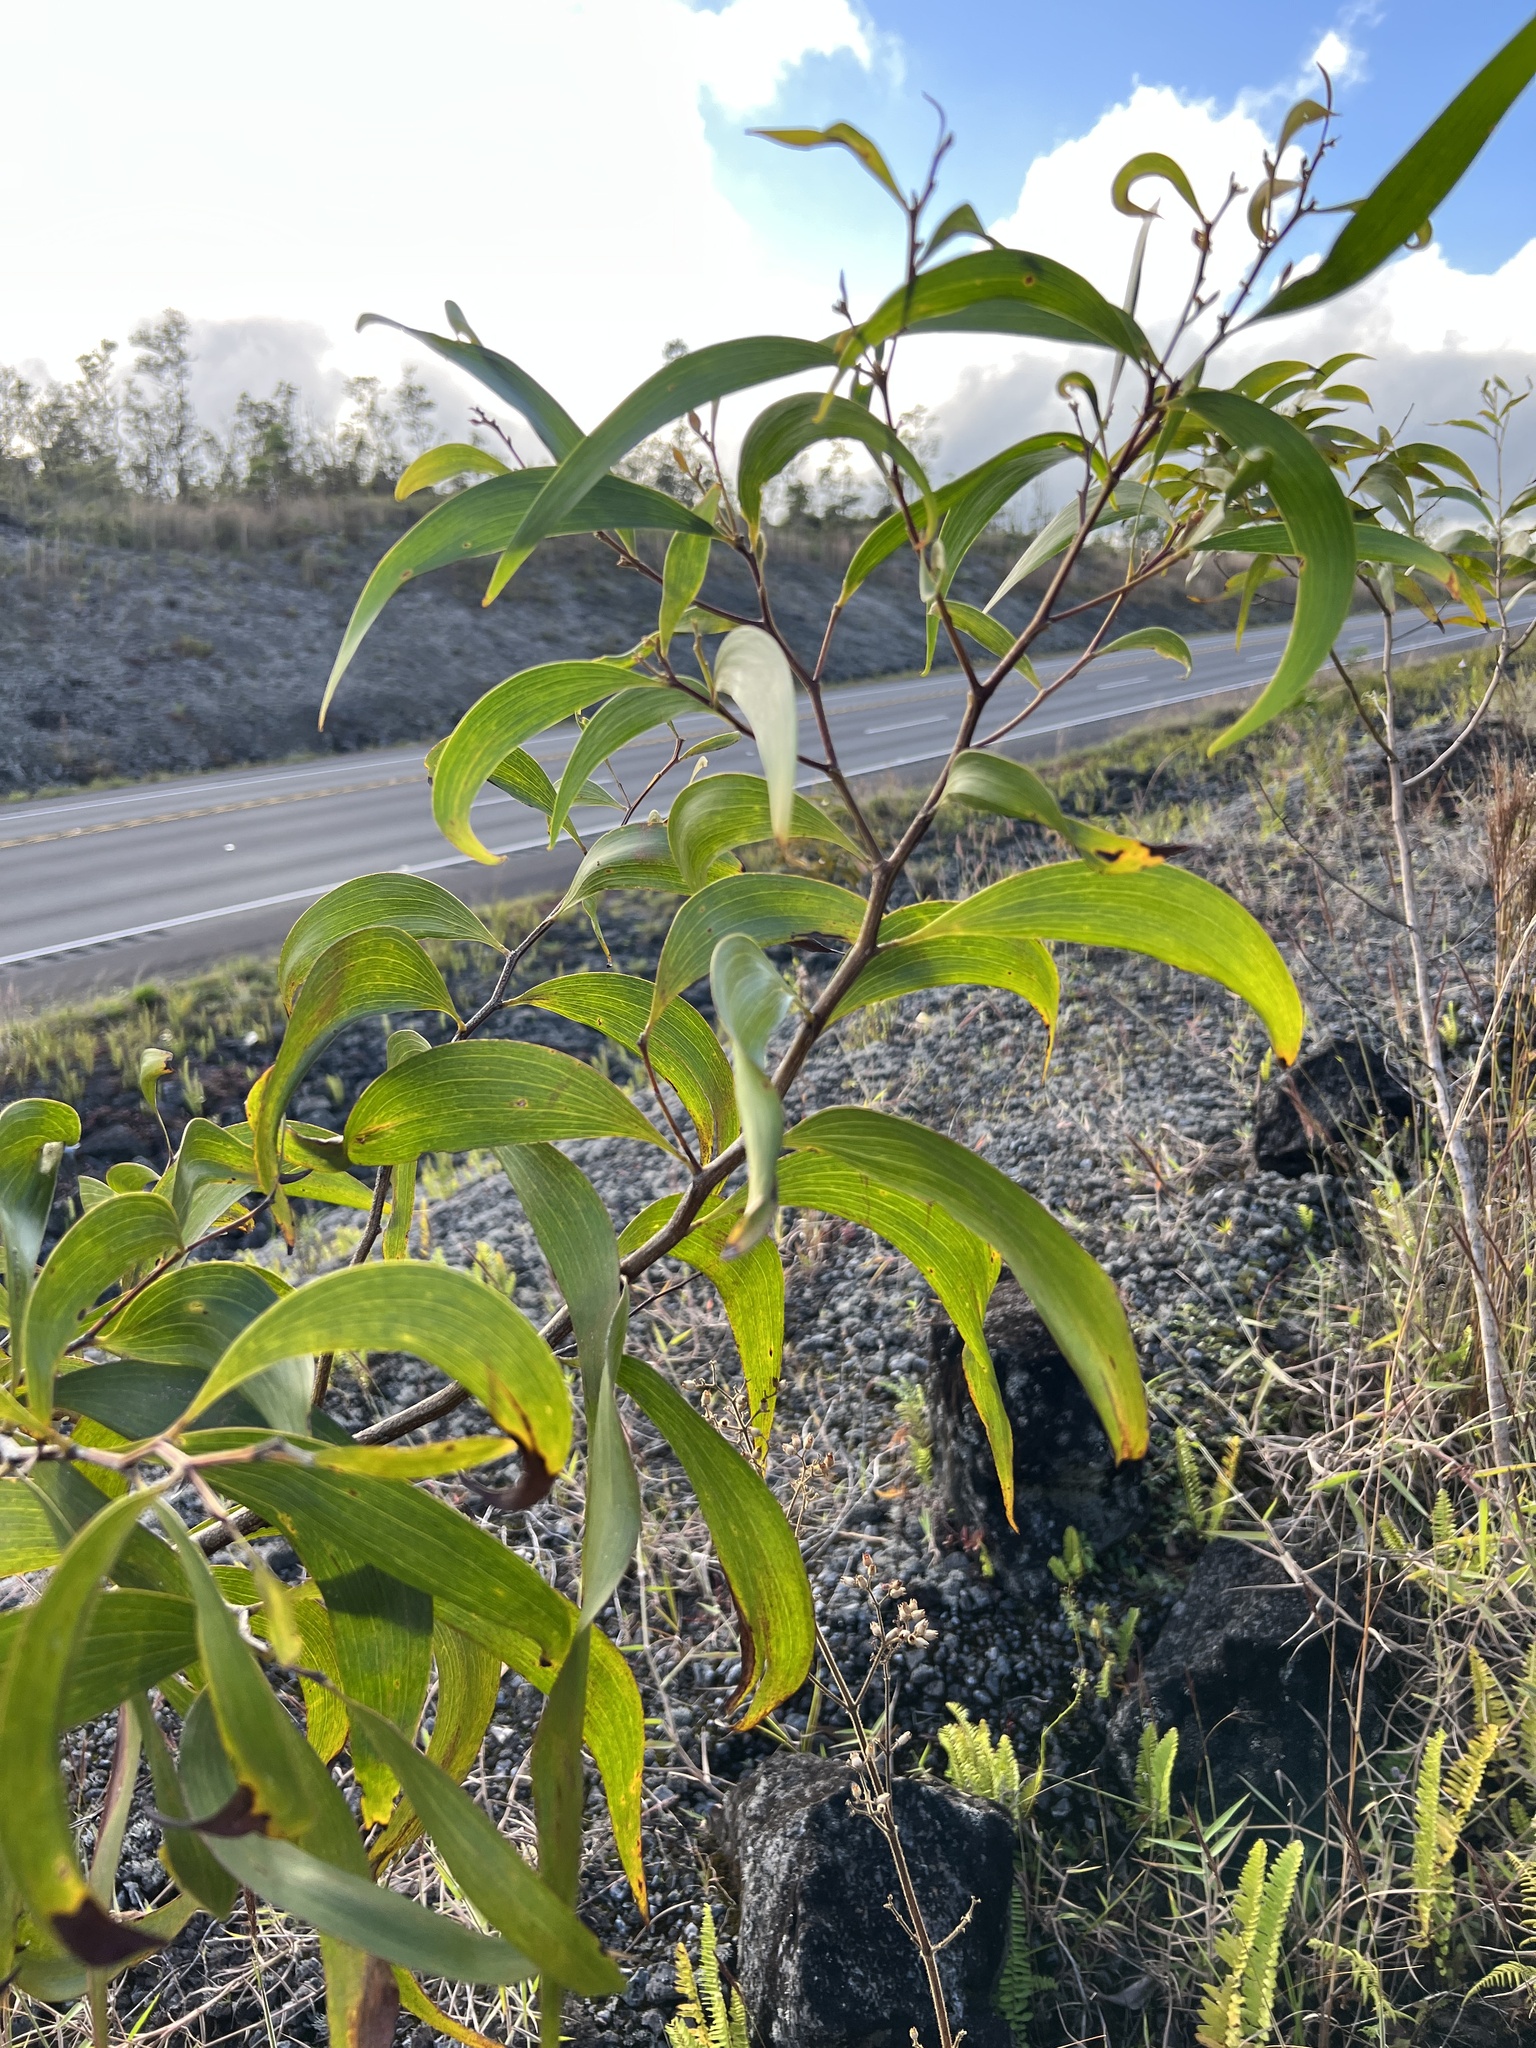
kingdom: Plantae
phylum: Tracheophyta
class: Magnoliopsida
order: Fabales
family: Fabaceae
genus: Acacia
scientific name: Acacia koa
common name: Gray koa
